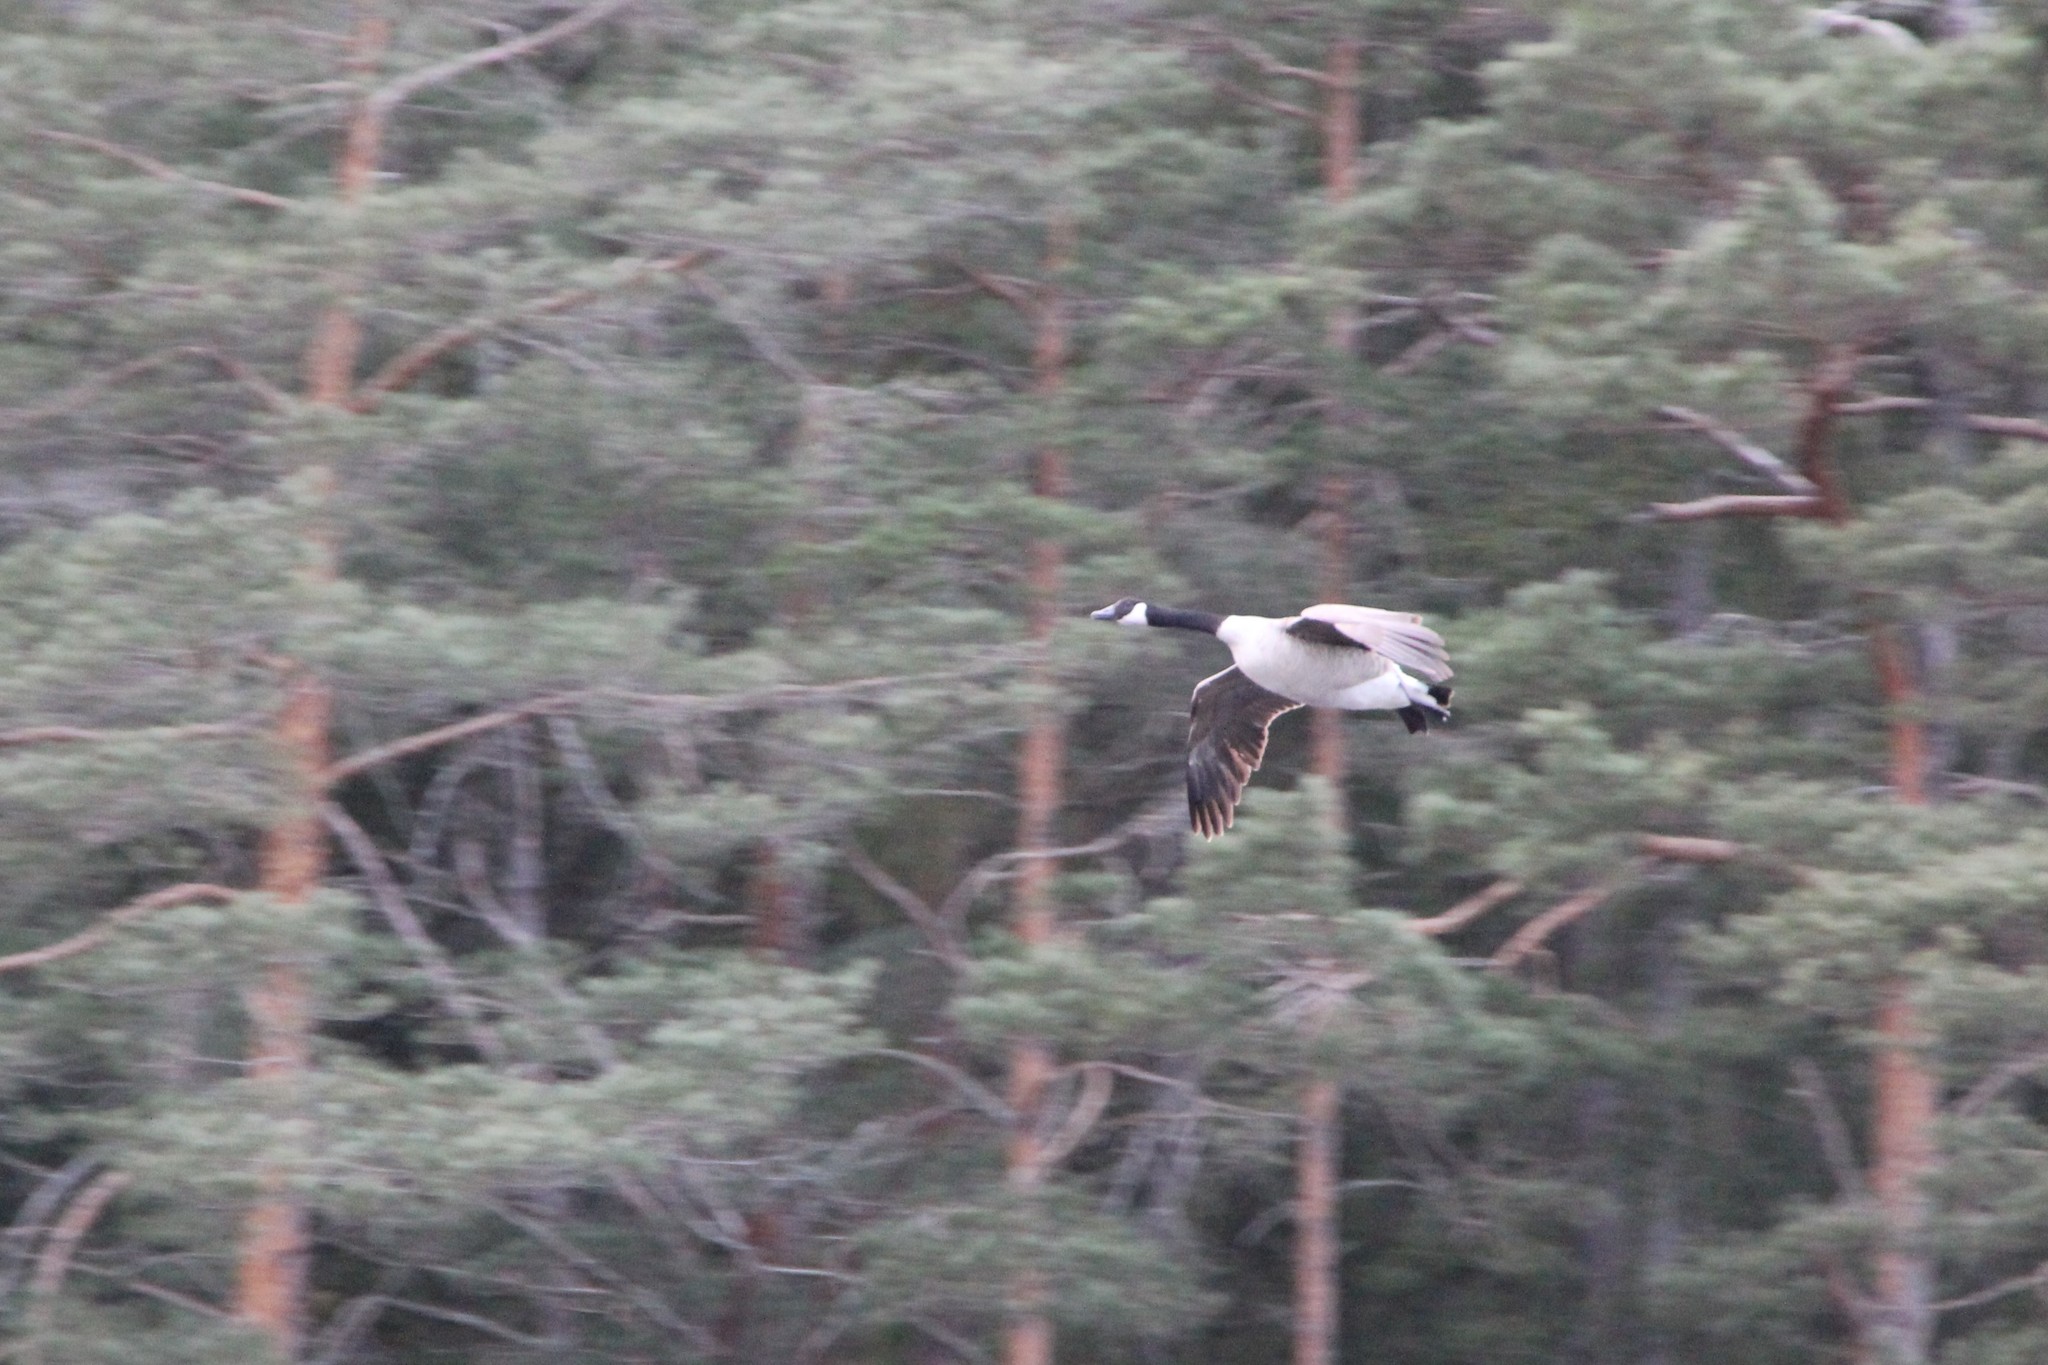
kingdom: Animalia
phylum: Chordata
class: Aves
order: Anseriformes
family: Anatidae
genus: Branta
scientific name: Branta canadensis
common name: Canada goose
